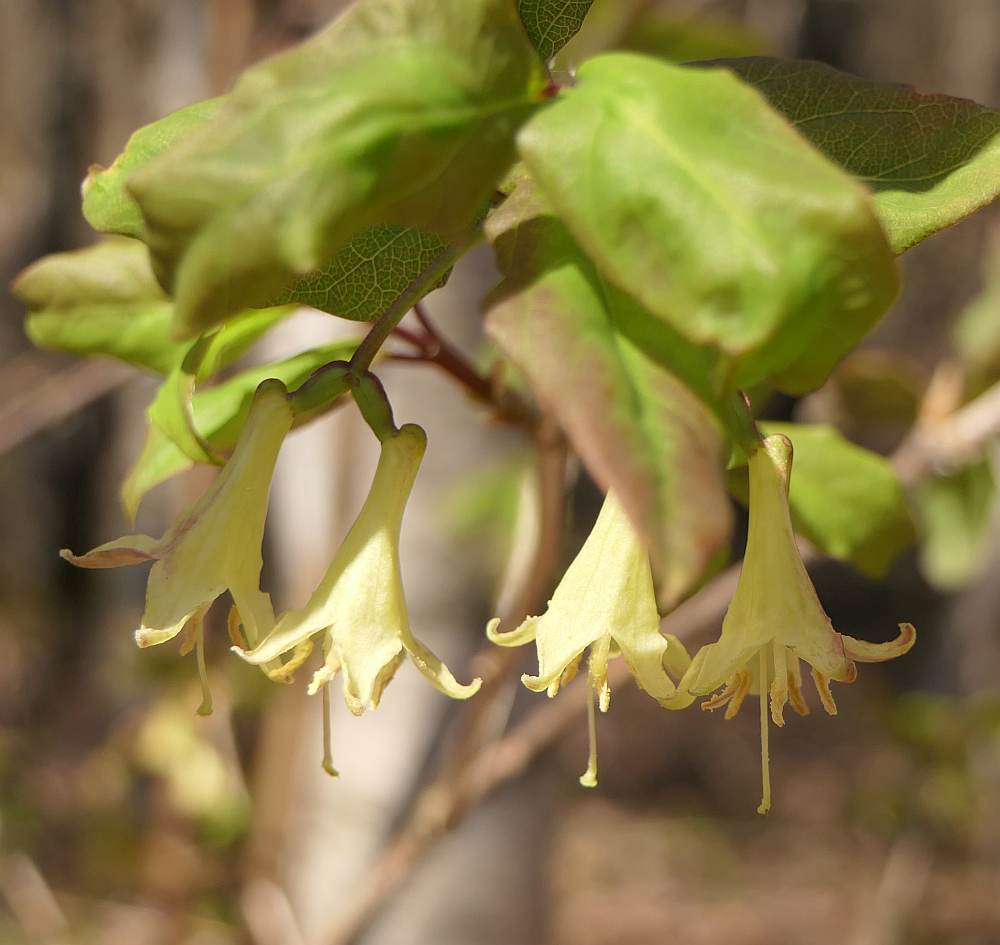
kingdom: Plantae
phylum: Tracheophyta
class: Magnoliopsida
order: Dipsacales
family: Caprifoliaceae
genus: Lonicera
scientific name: Lonicera canadensis
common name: American fly-honeysuckle
